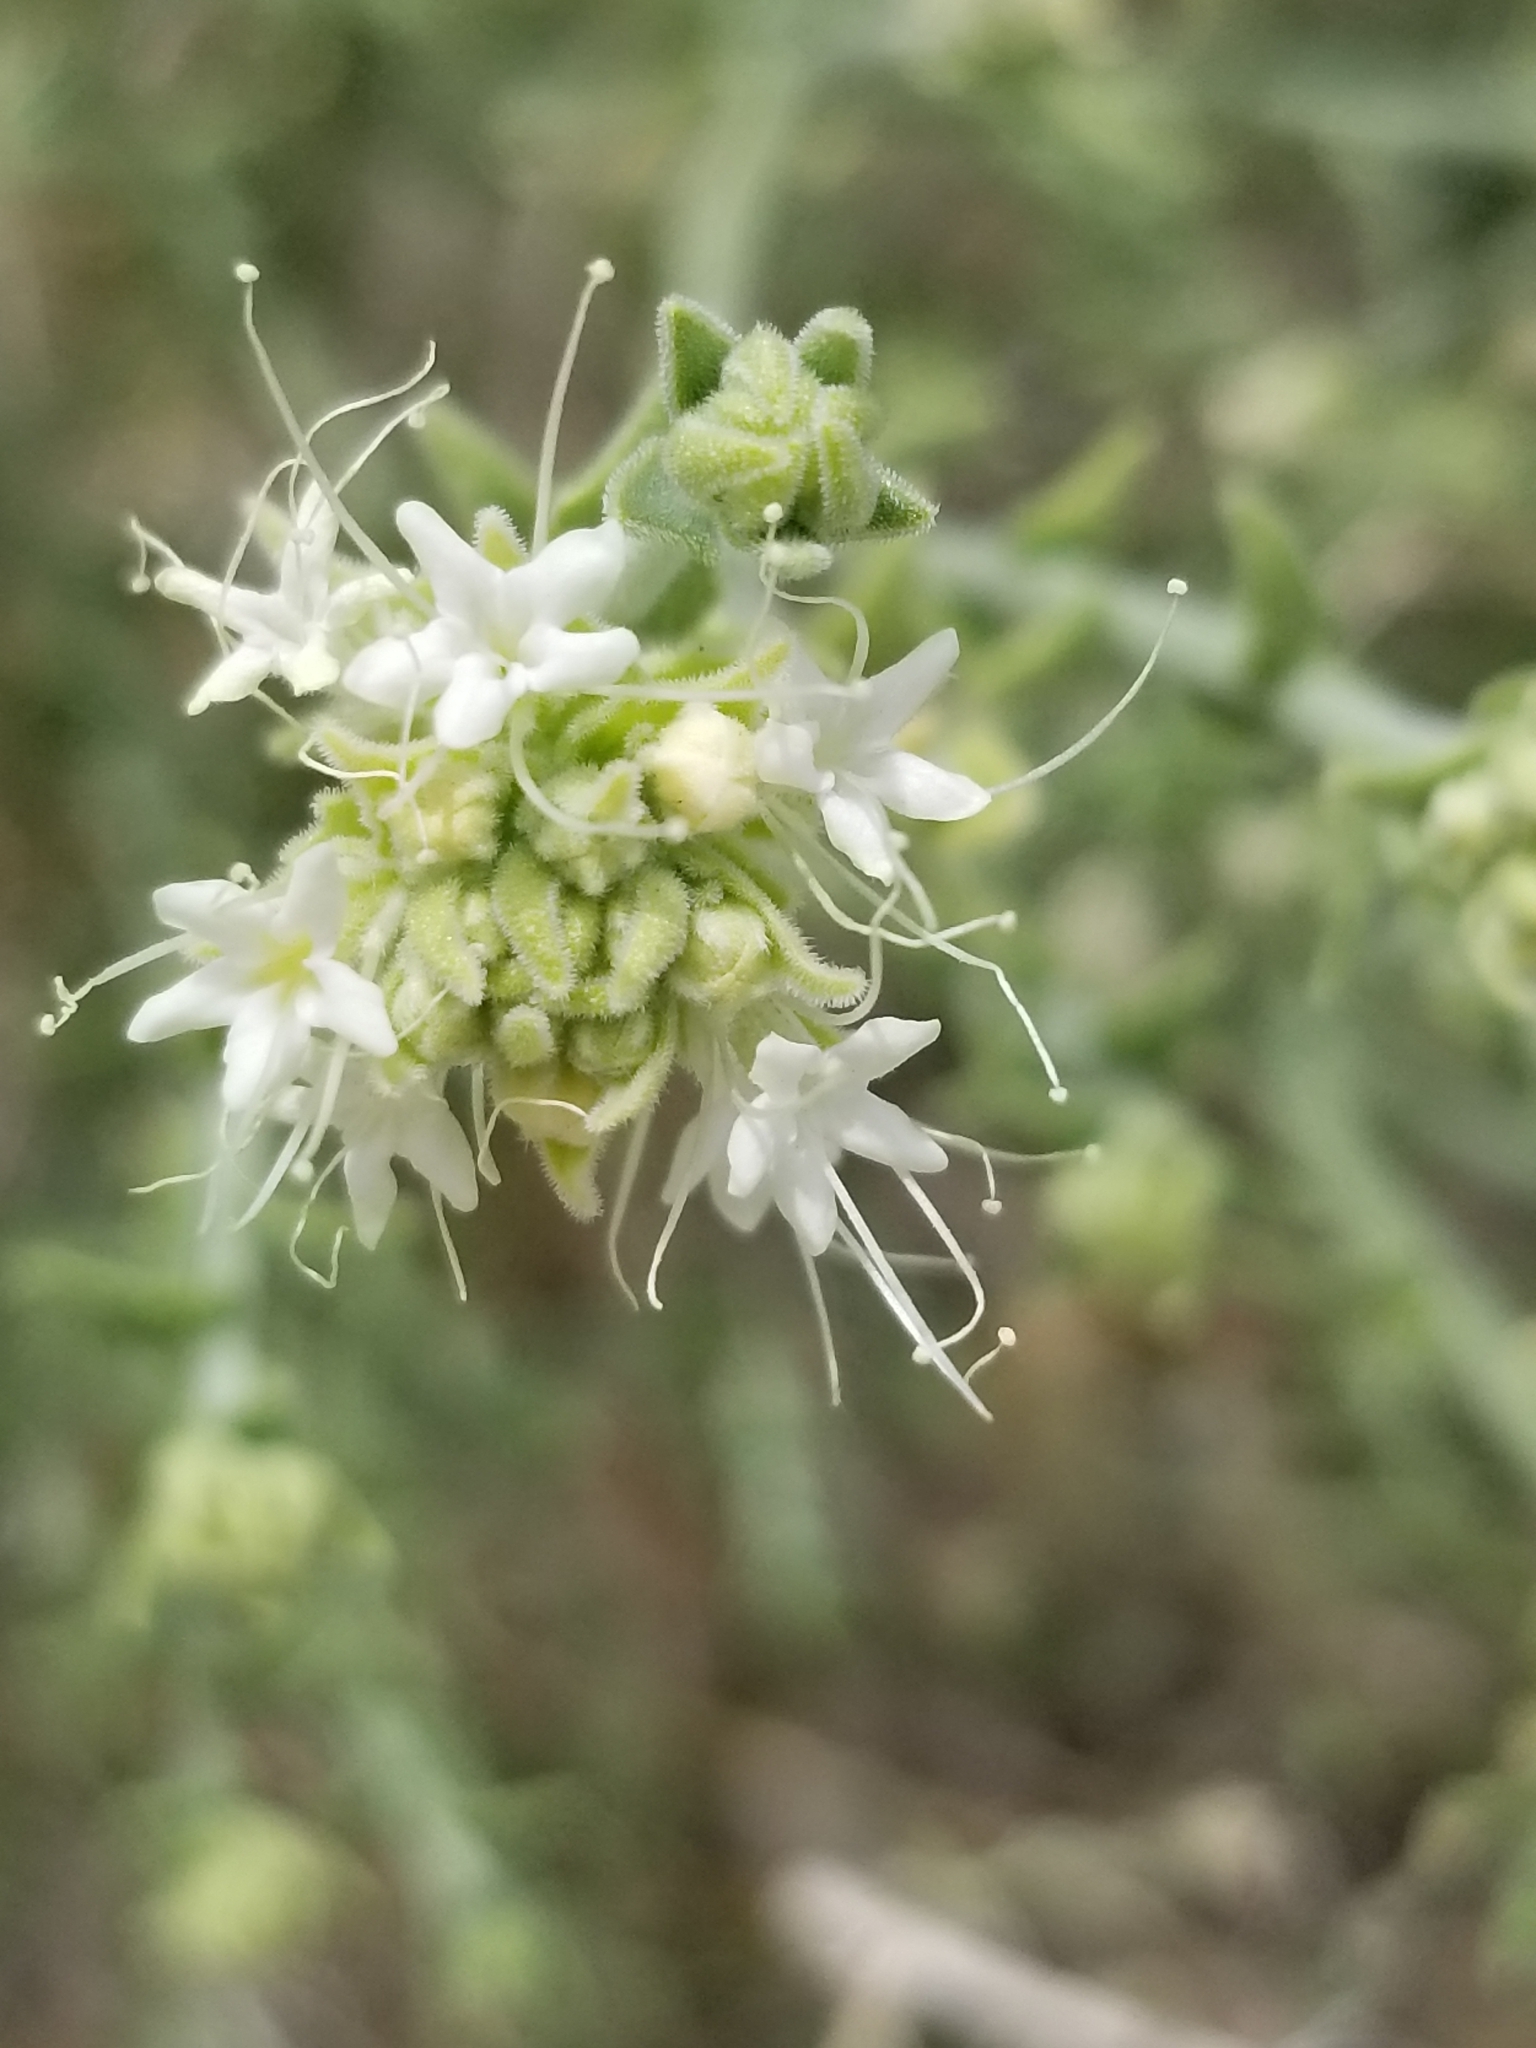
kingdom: Plantae
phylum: Tracheophyta
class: Magnoliopsida
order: Cornales
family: Loasaceae
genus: Petalonyx
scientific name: Petalonyx thurberi
